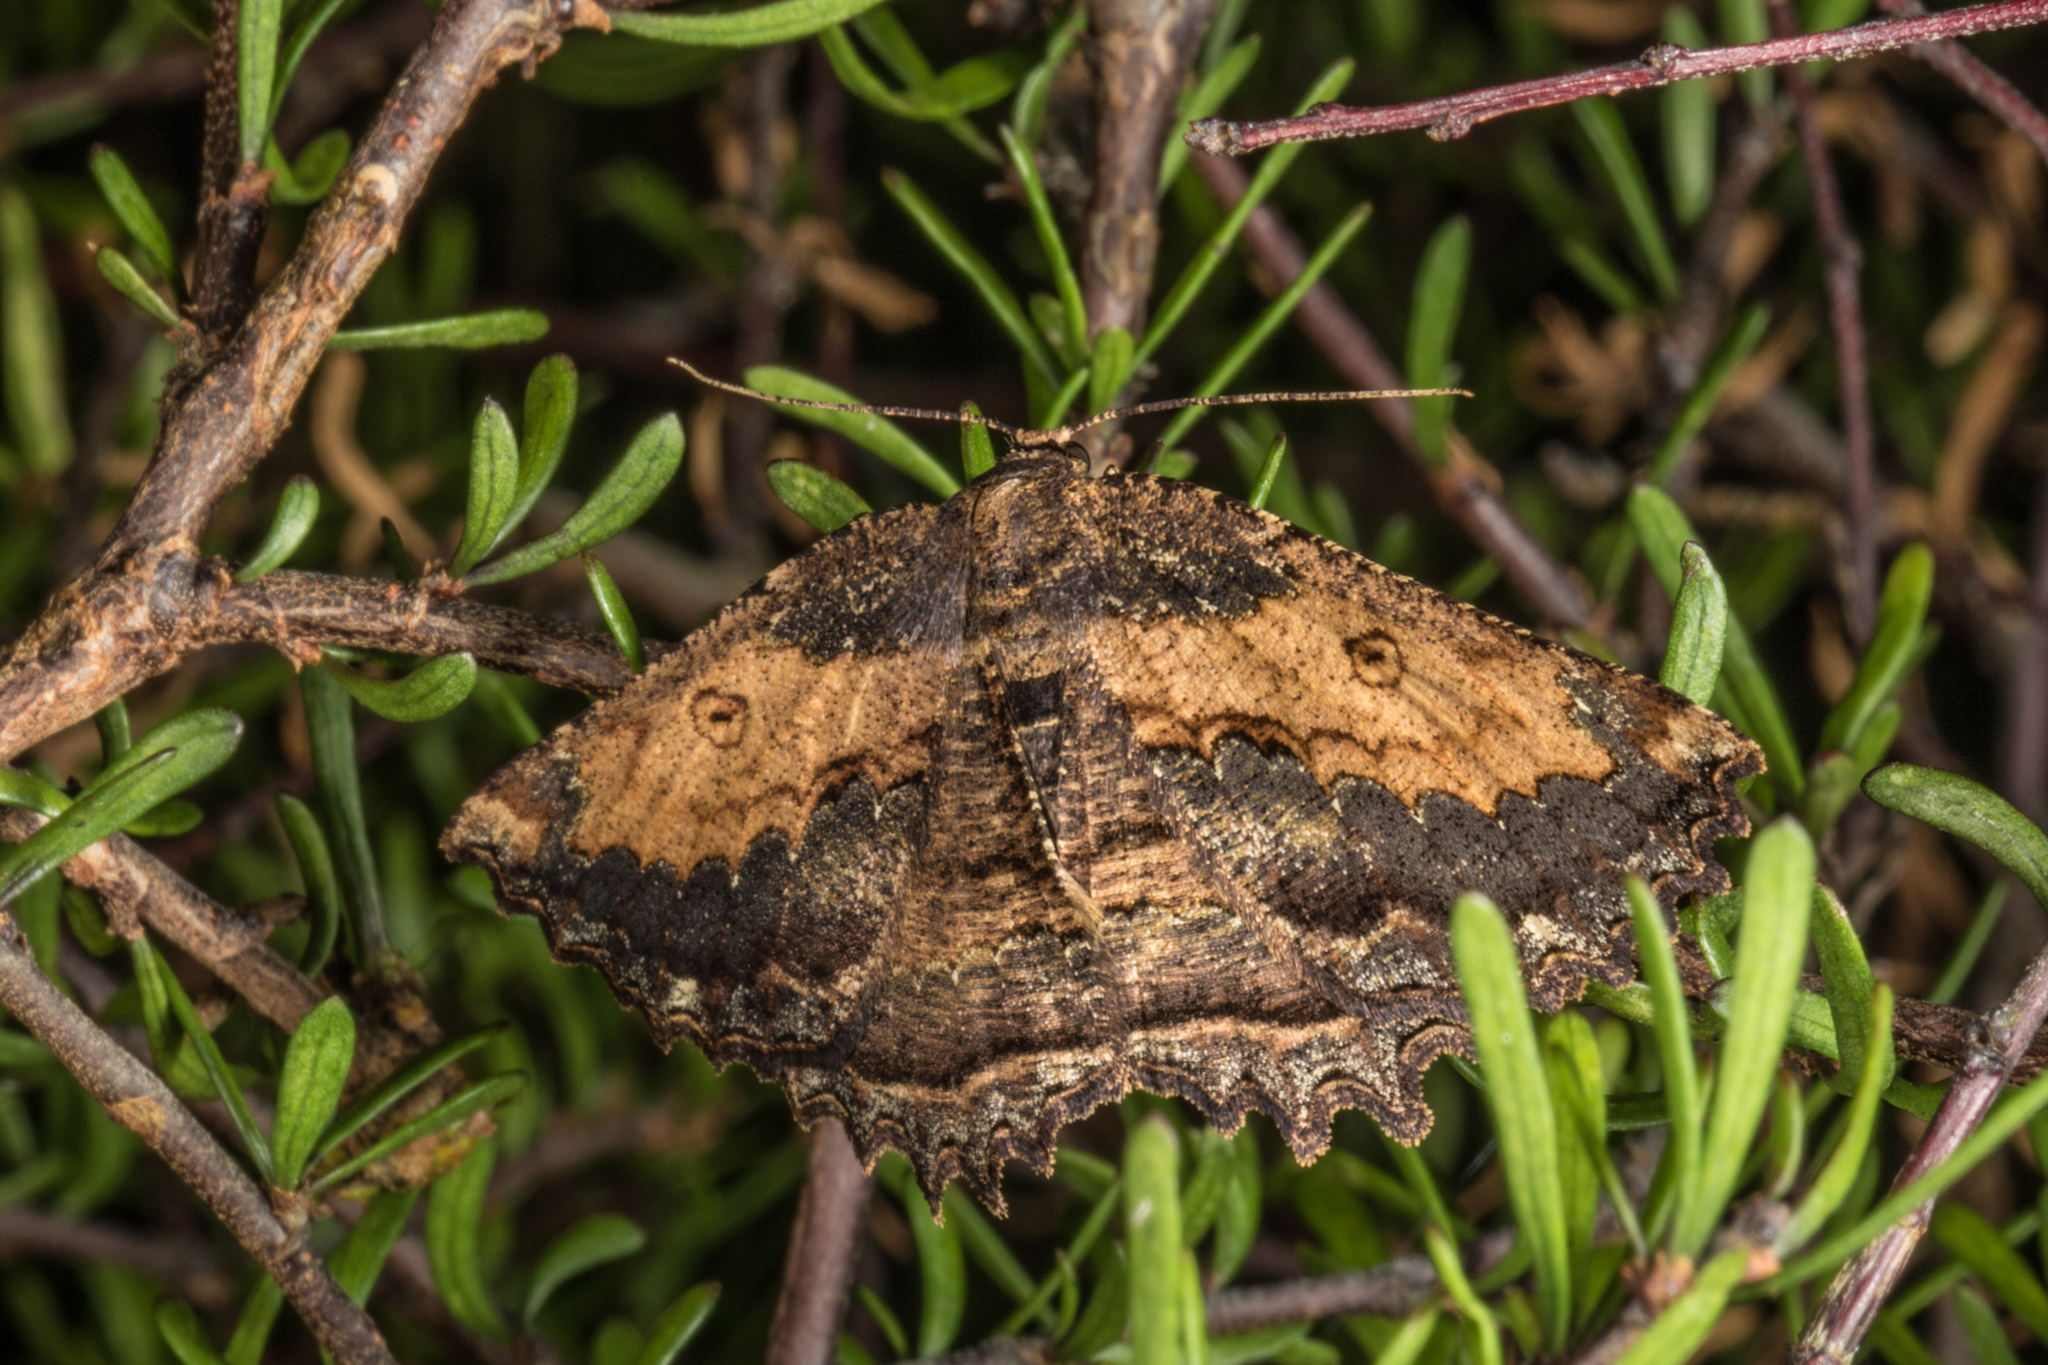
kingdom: Animalia
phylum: Arthropoda
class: Insecta
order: Lepidoptera
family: Geometridae
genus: Gellonia
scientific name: Gellonia dejectaria
